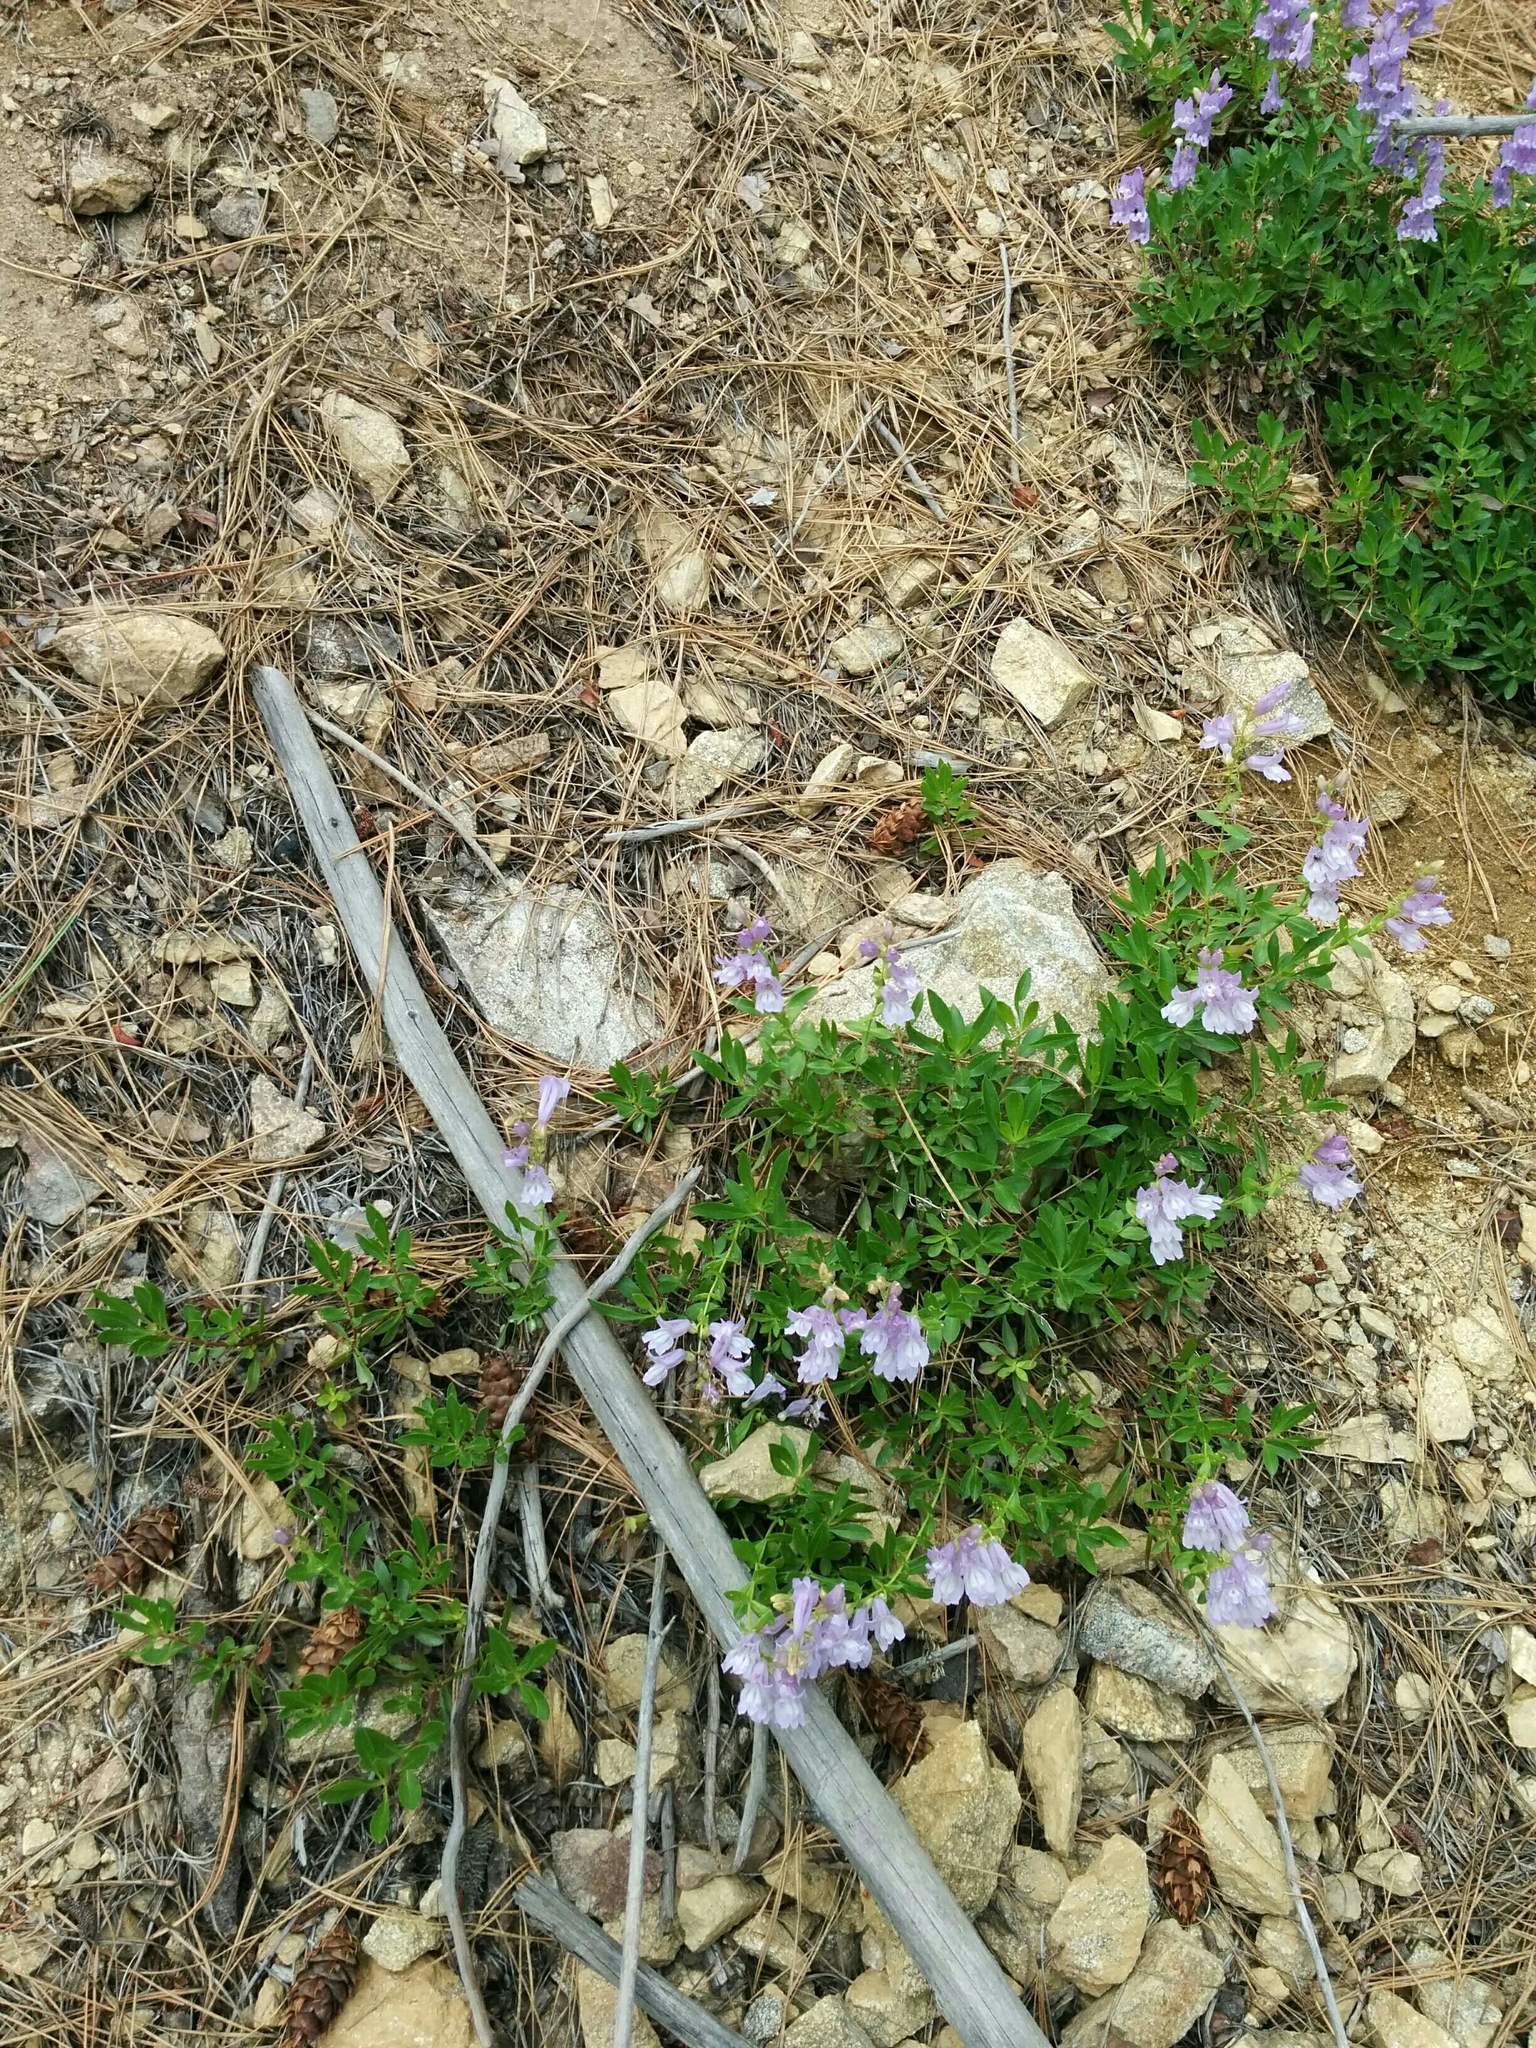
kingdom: Plantae
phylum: Tracheophyta
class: Magnoliopsida
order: Lamiales
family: Plantaginaceae
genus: Penstemon
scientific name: Penstemon fruticosus
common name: Bush penstemon
